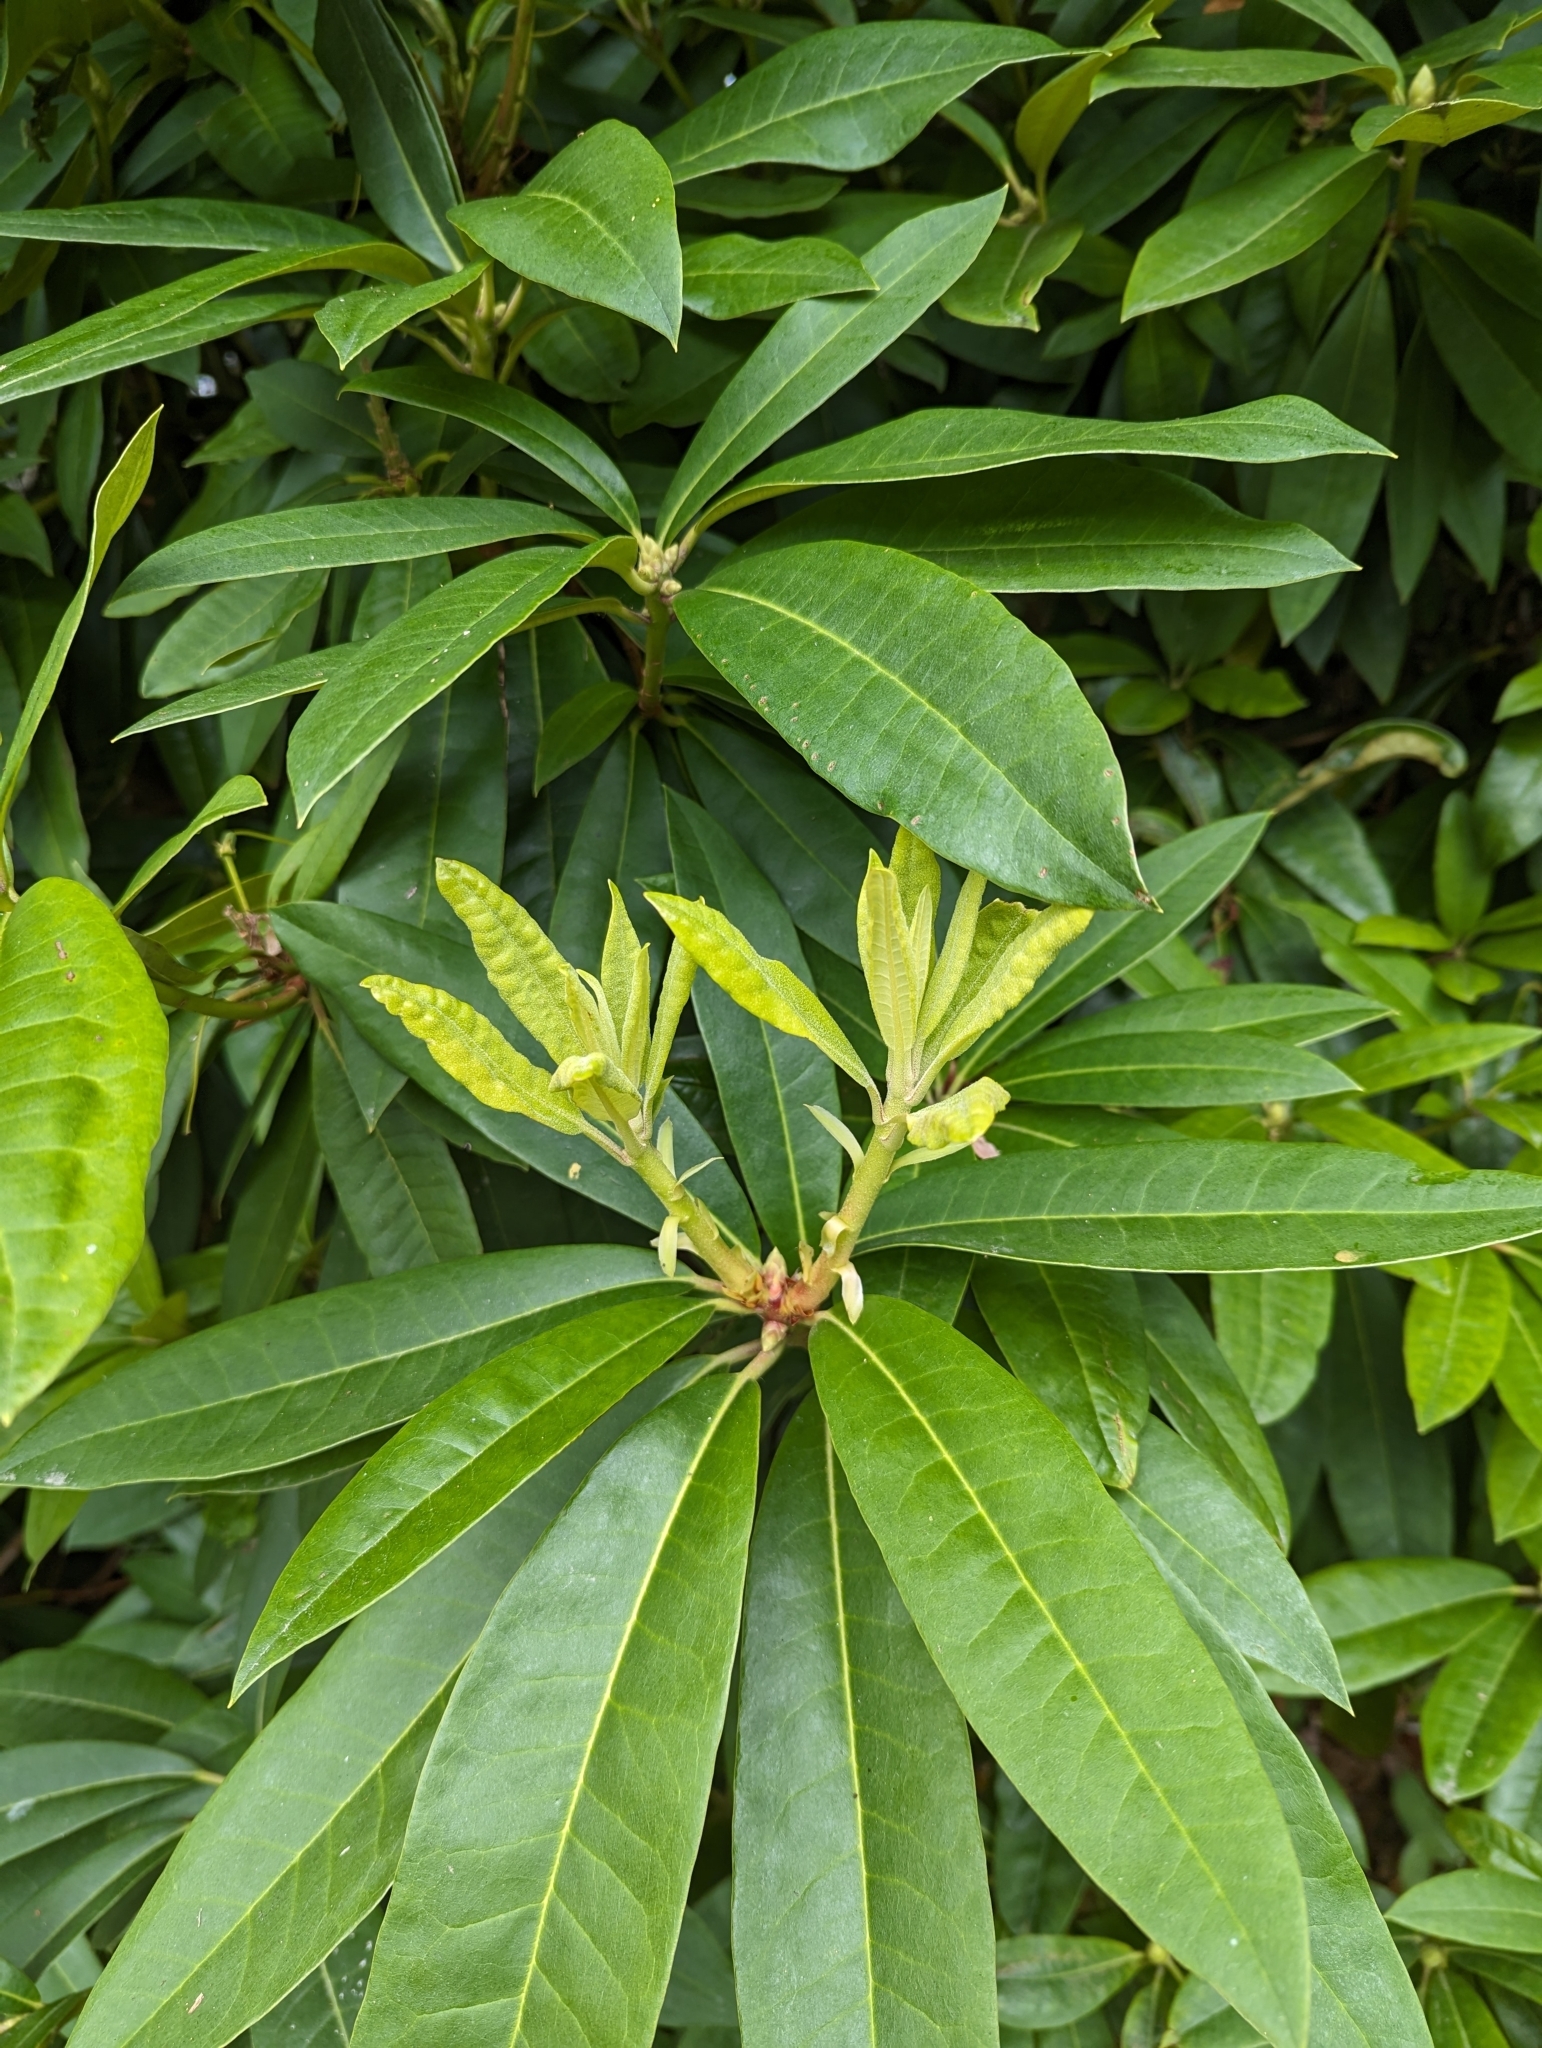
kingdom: Plantae
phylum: Tracheophyta
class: Magnoliopsida
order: Ericales
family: Ericaceae
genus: Rhododendron
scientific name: Rhododendron ponticum
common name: Rhododendron
